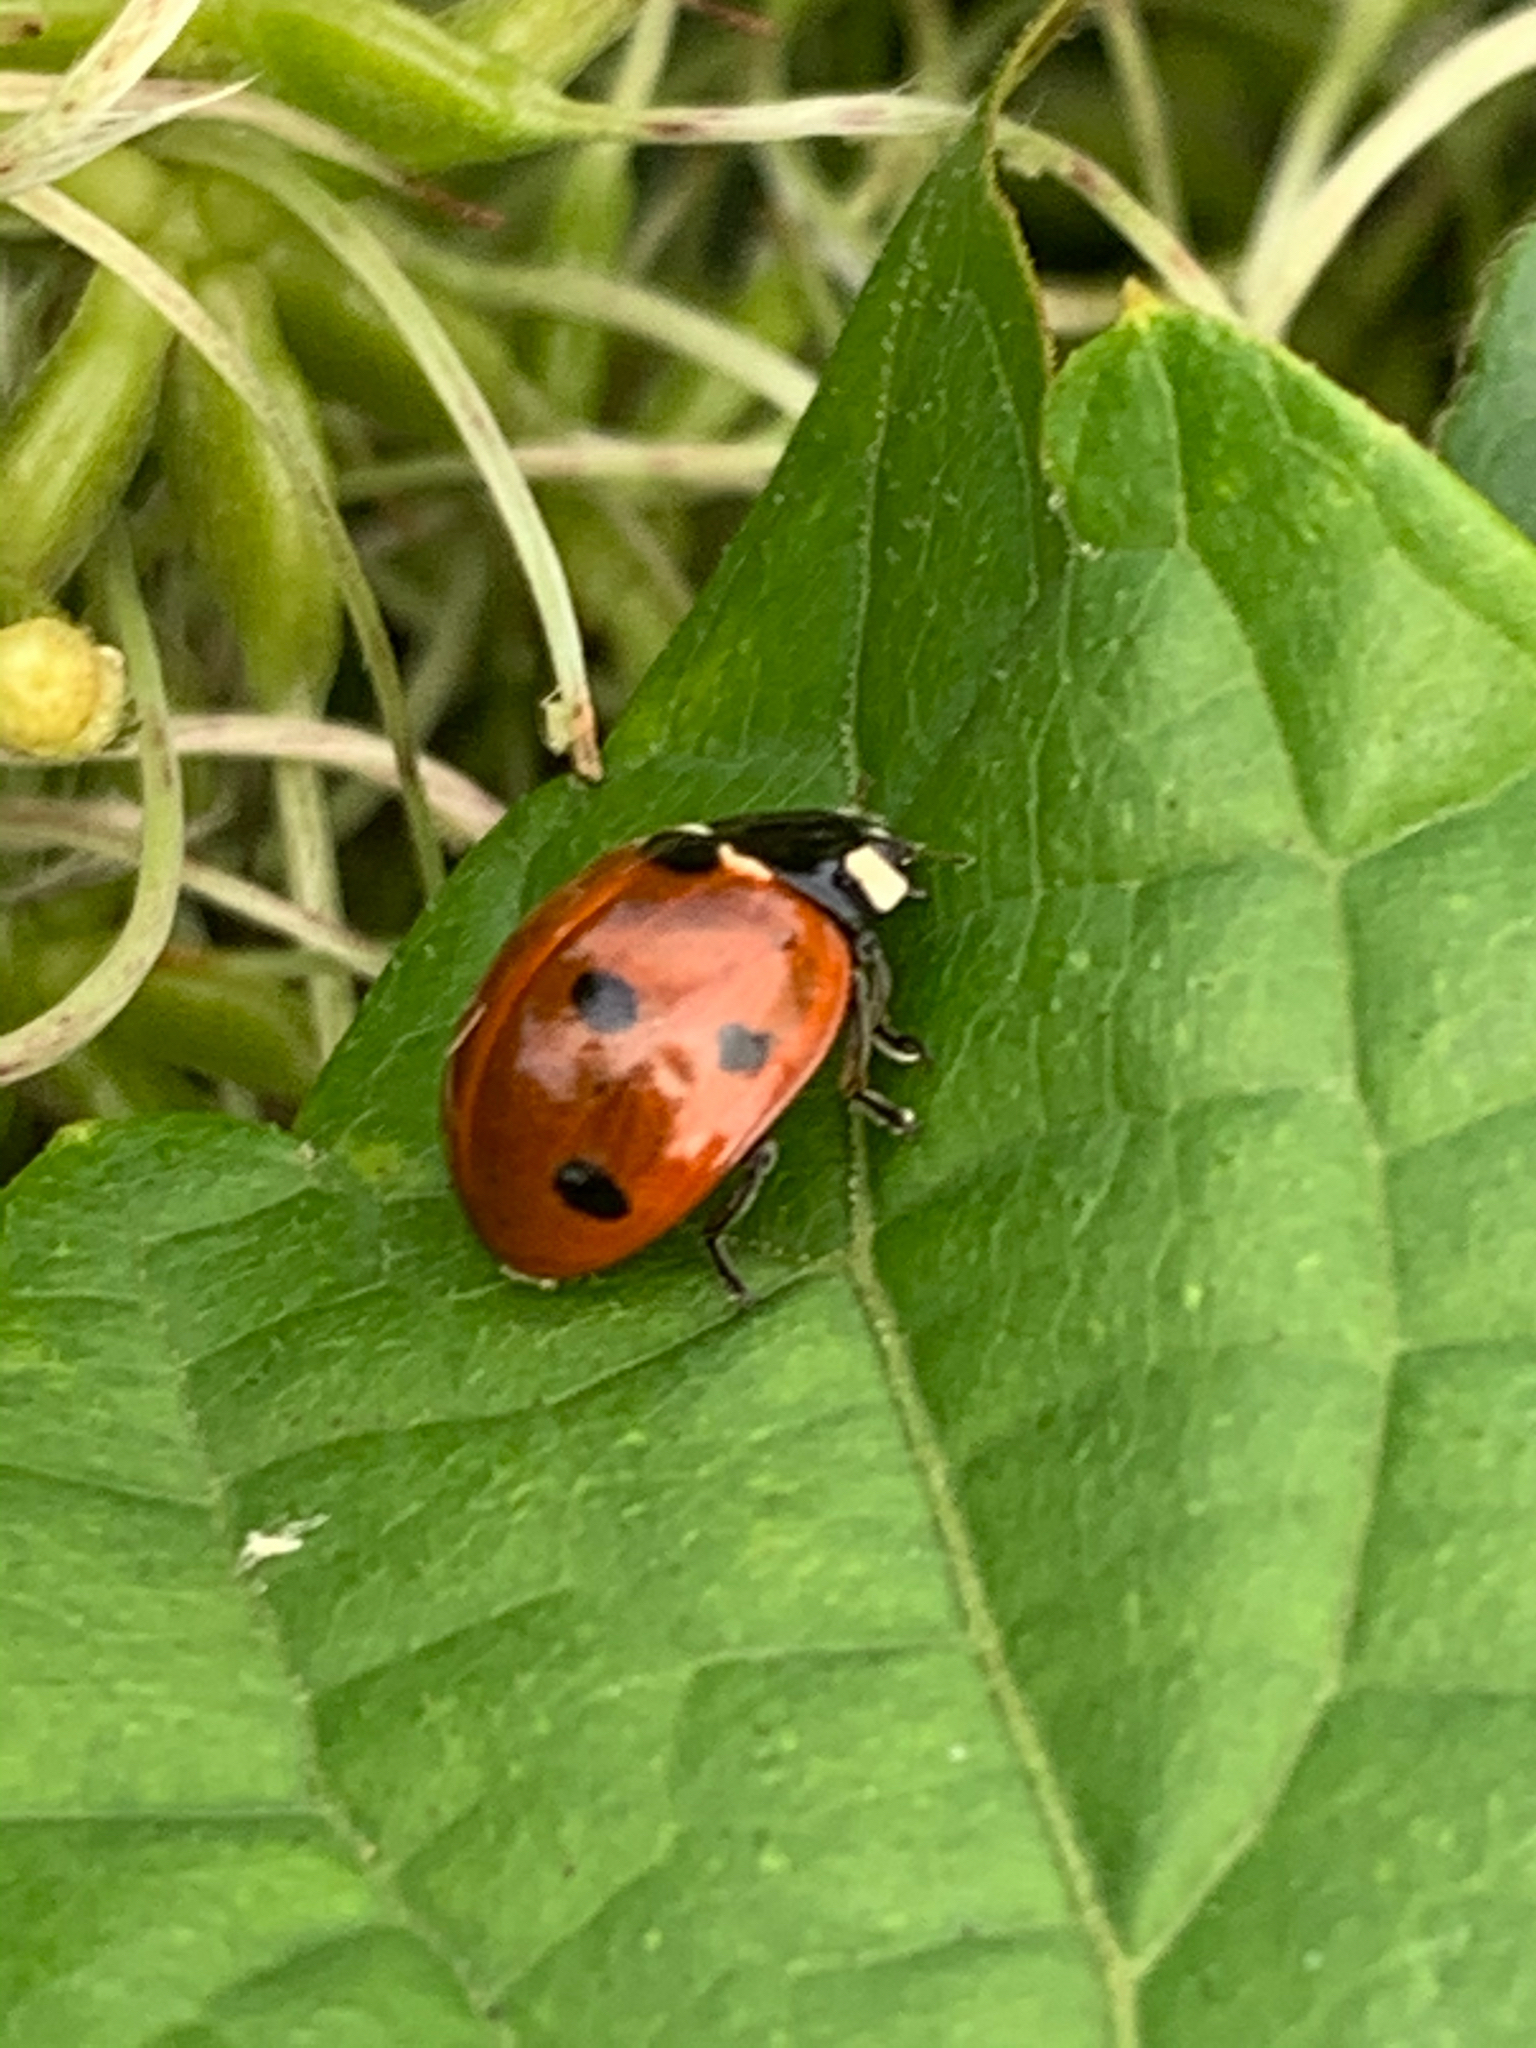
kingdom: Animalia
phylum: Arthropoda
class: Insecta
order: Coleoptera
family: Coccinellidae
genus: Coccinella
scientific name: Coccinella septempunctata
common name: Sevenspotted lady beetle
